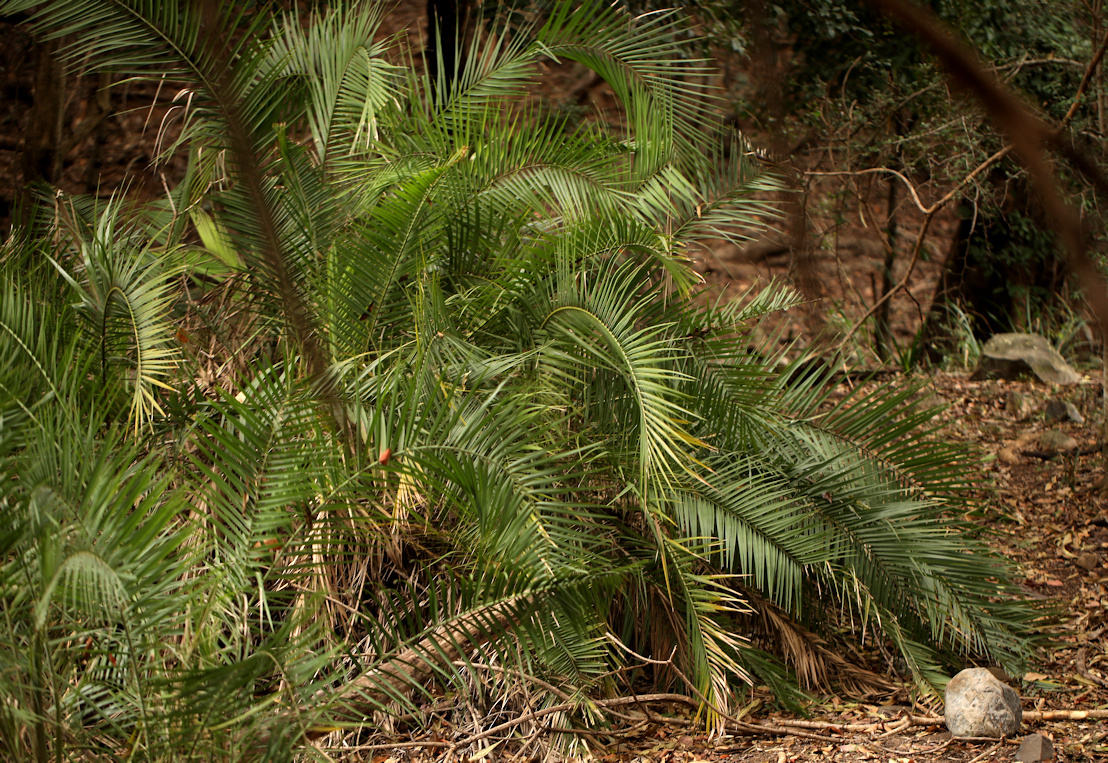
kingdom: Plantae
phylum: Tracheophyta
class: Liliopsida
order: Arecales
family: Arecaceae
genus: Phoenix
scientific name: Phoenix reclinata
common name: Senegal date palm
